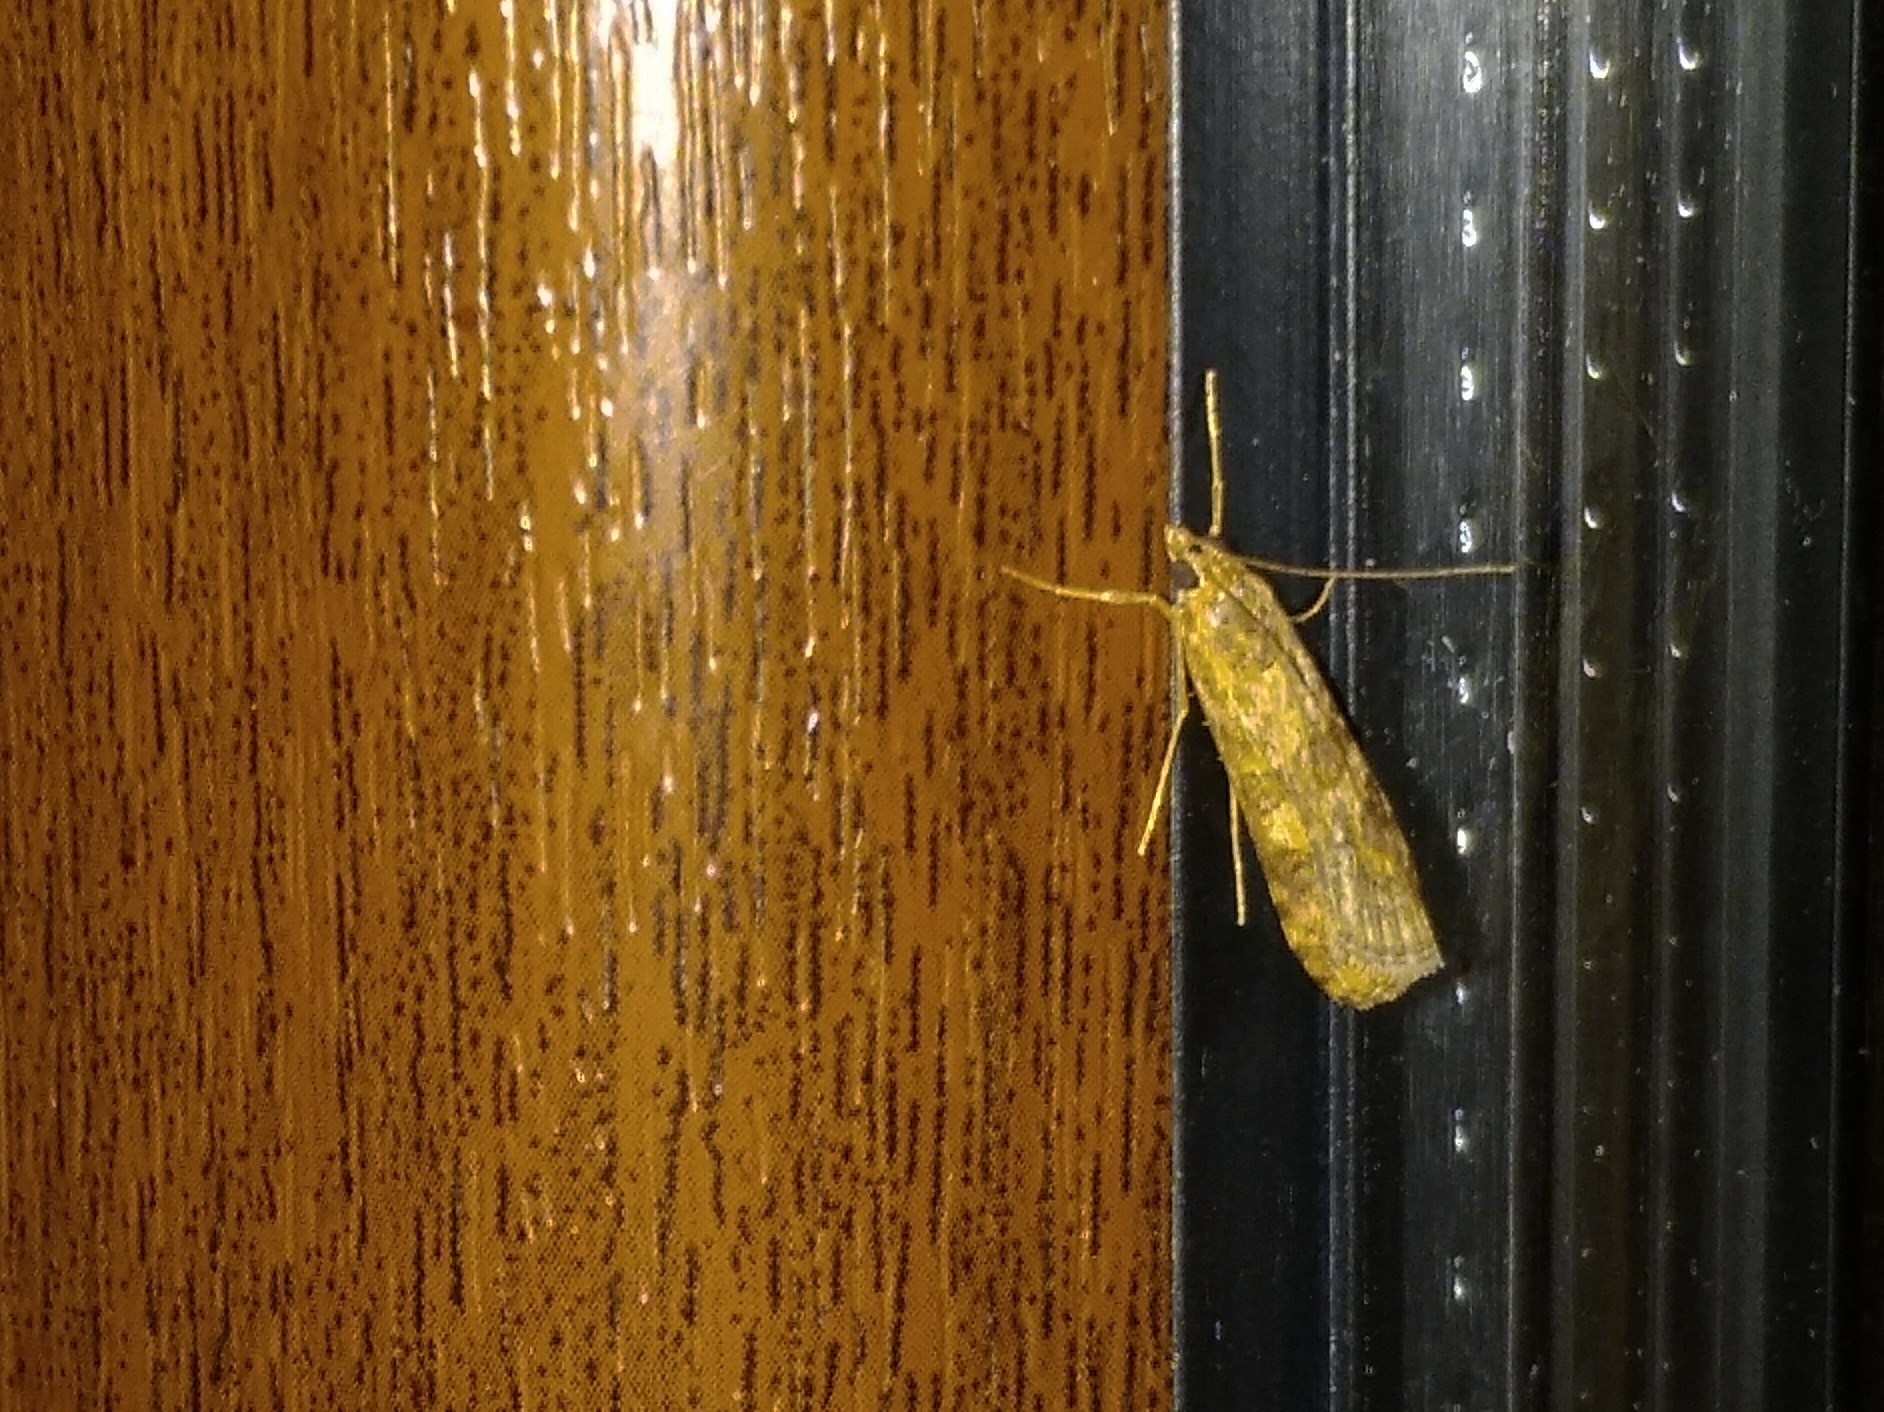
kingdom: Animalia
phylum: Arthropoda
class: Insecta
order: Lepidoptera
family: Crambidae
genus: Nomophila
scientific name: Nomophila noctuella
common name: Rush veneer
